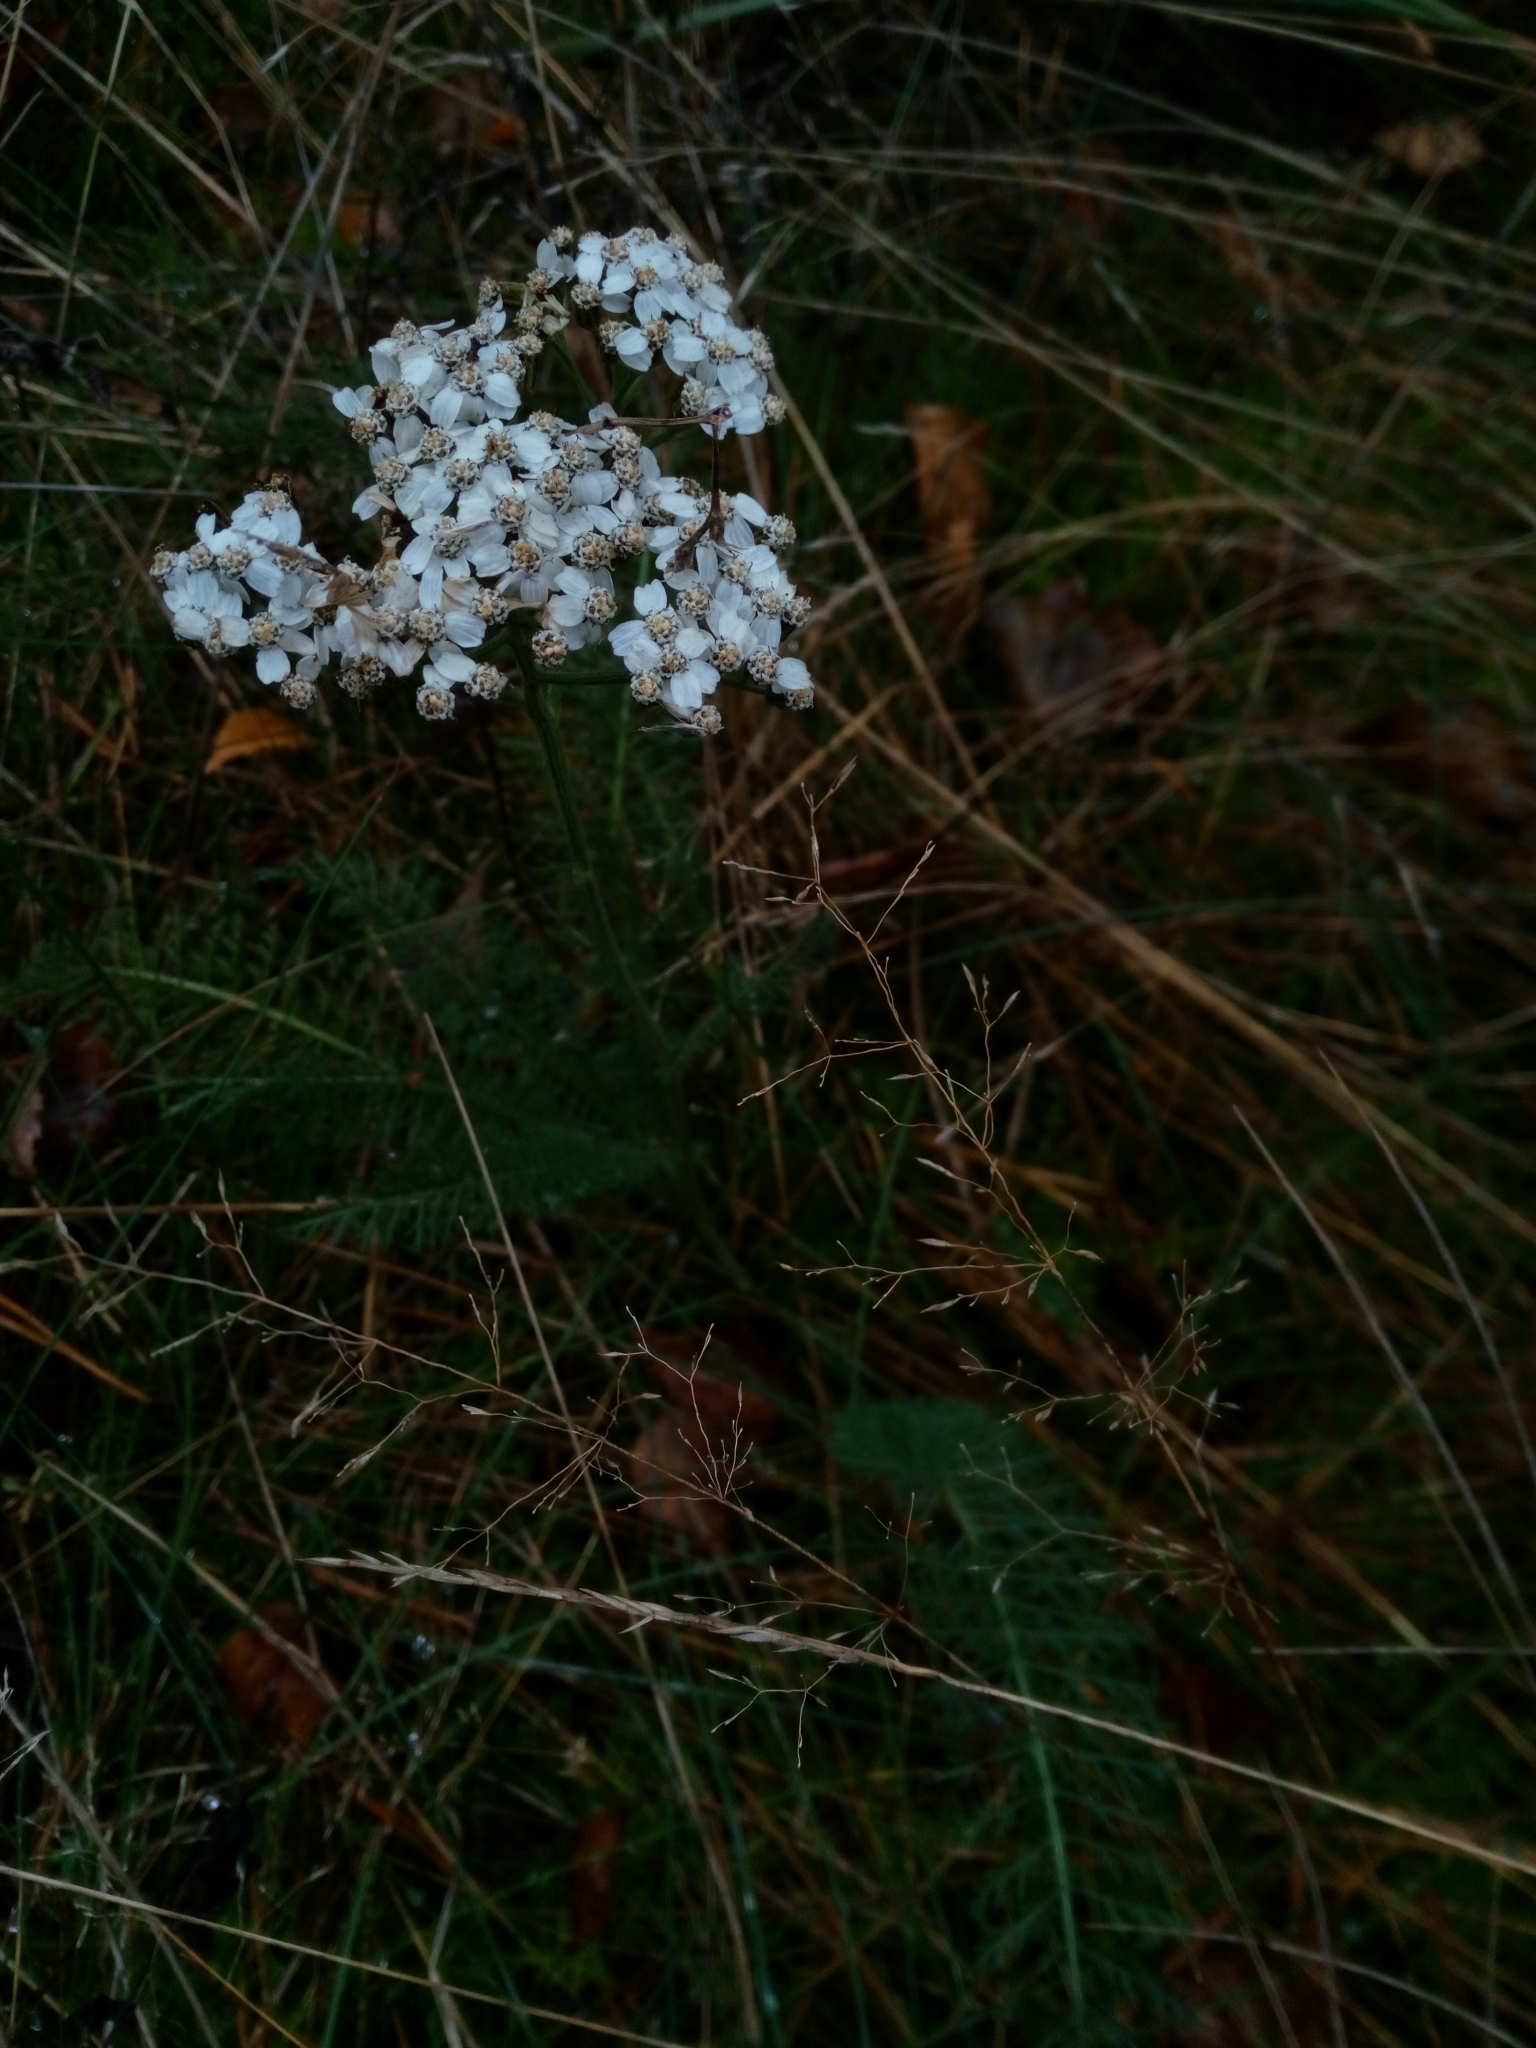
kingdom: Plantae
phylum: Tracheophyta
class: Magnoliopsida
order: Asterales
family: Asteraceae
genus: Achillea
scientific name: Achillea millefolium
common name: Yarrow
